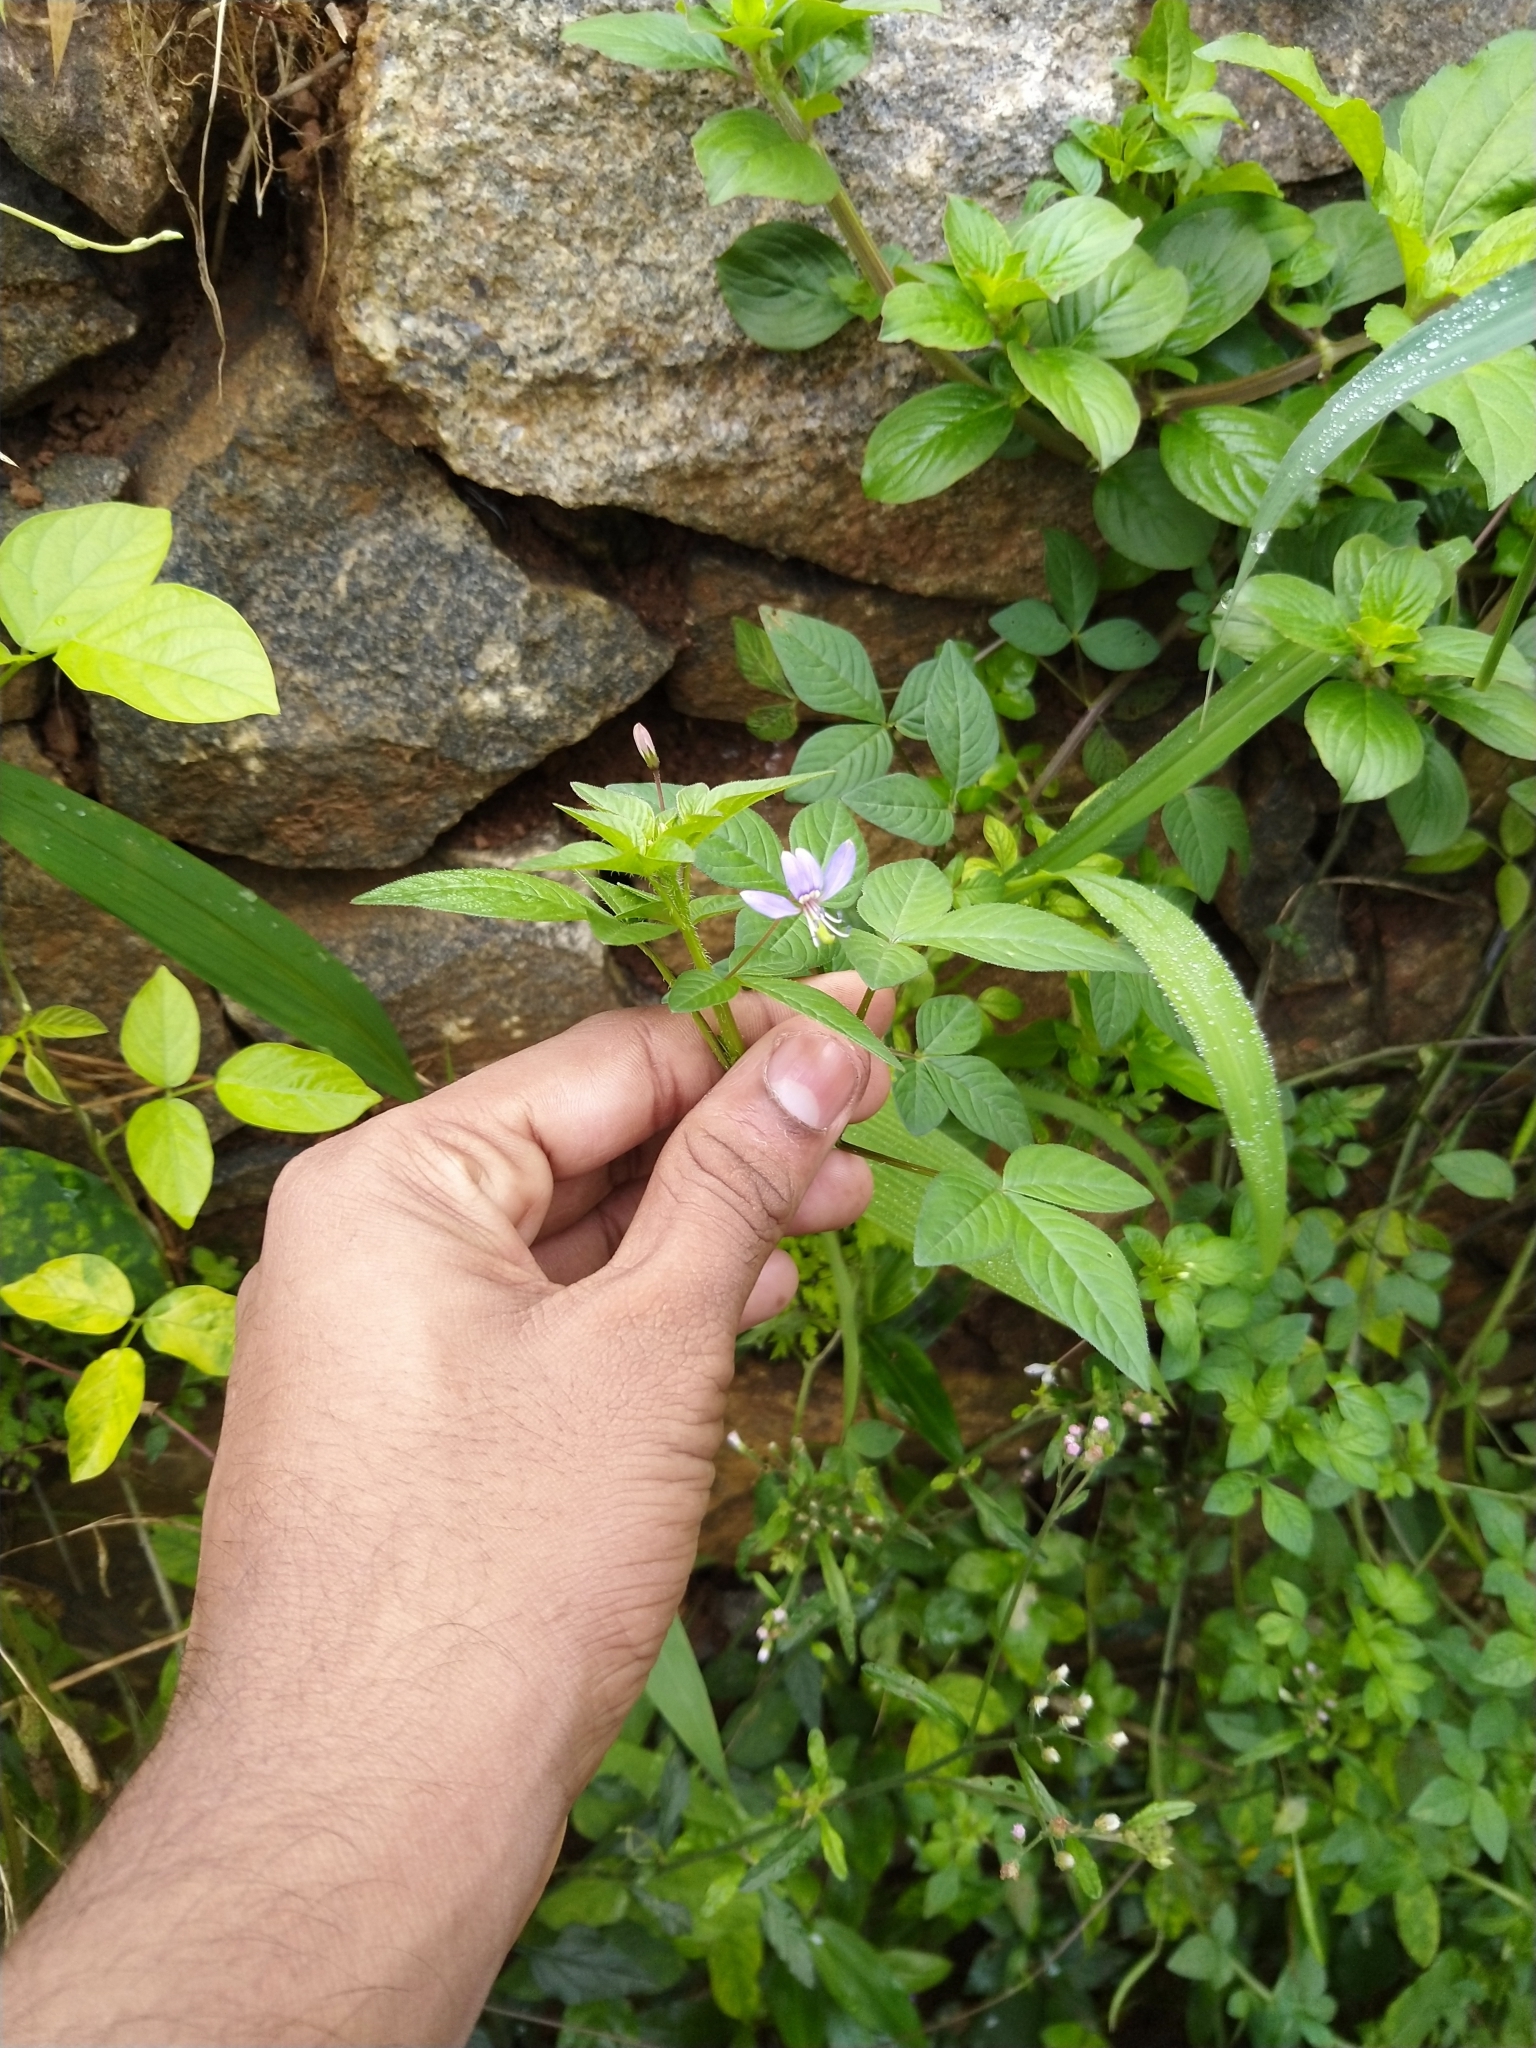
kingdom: Plantae
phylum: Tracheophyta
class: Magnoliopsida
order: Brassicales
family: Cleomaceae
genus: Sieruela
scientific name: Sieruela rutidosperma
